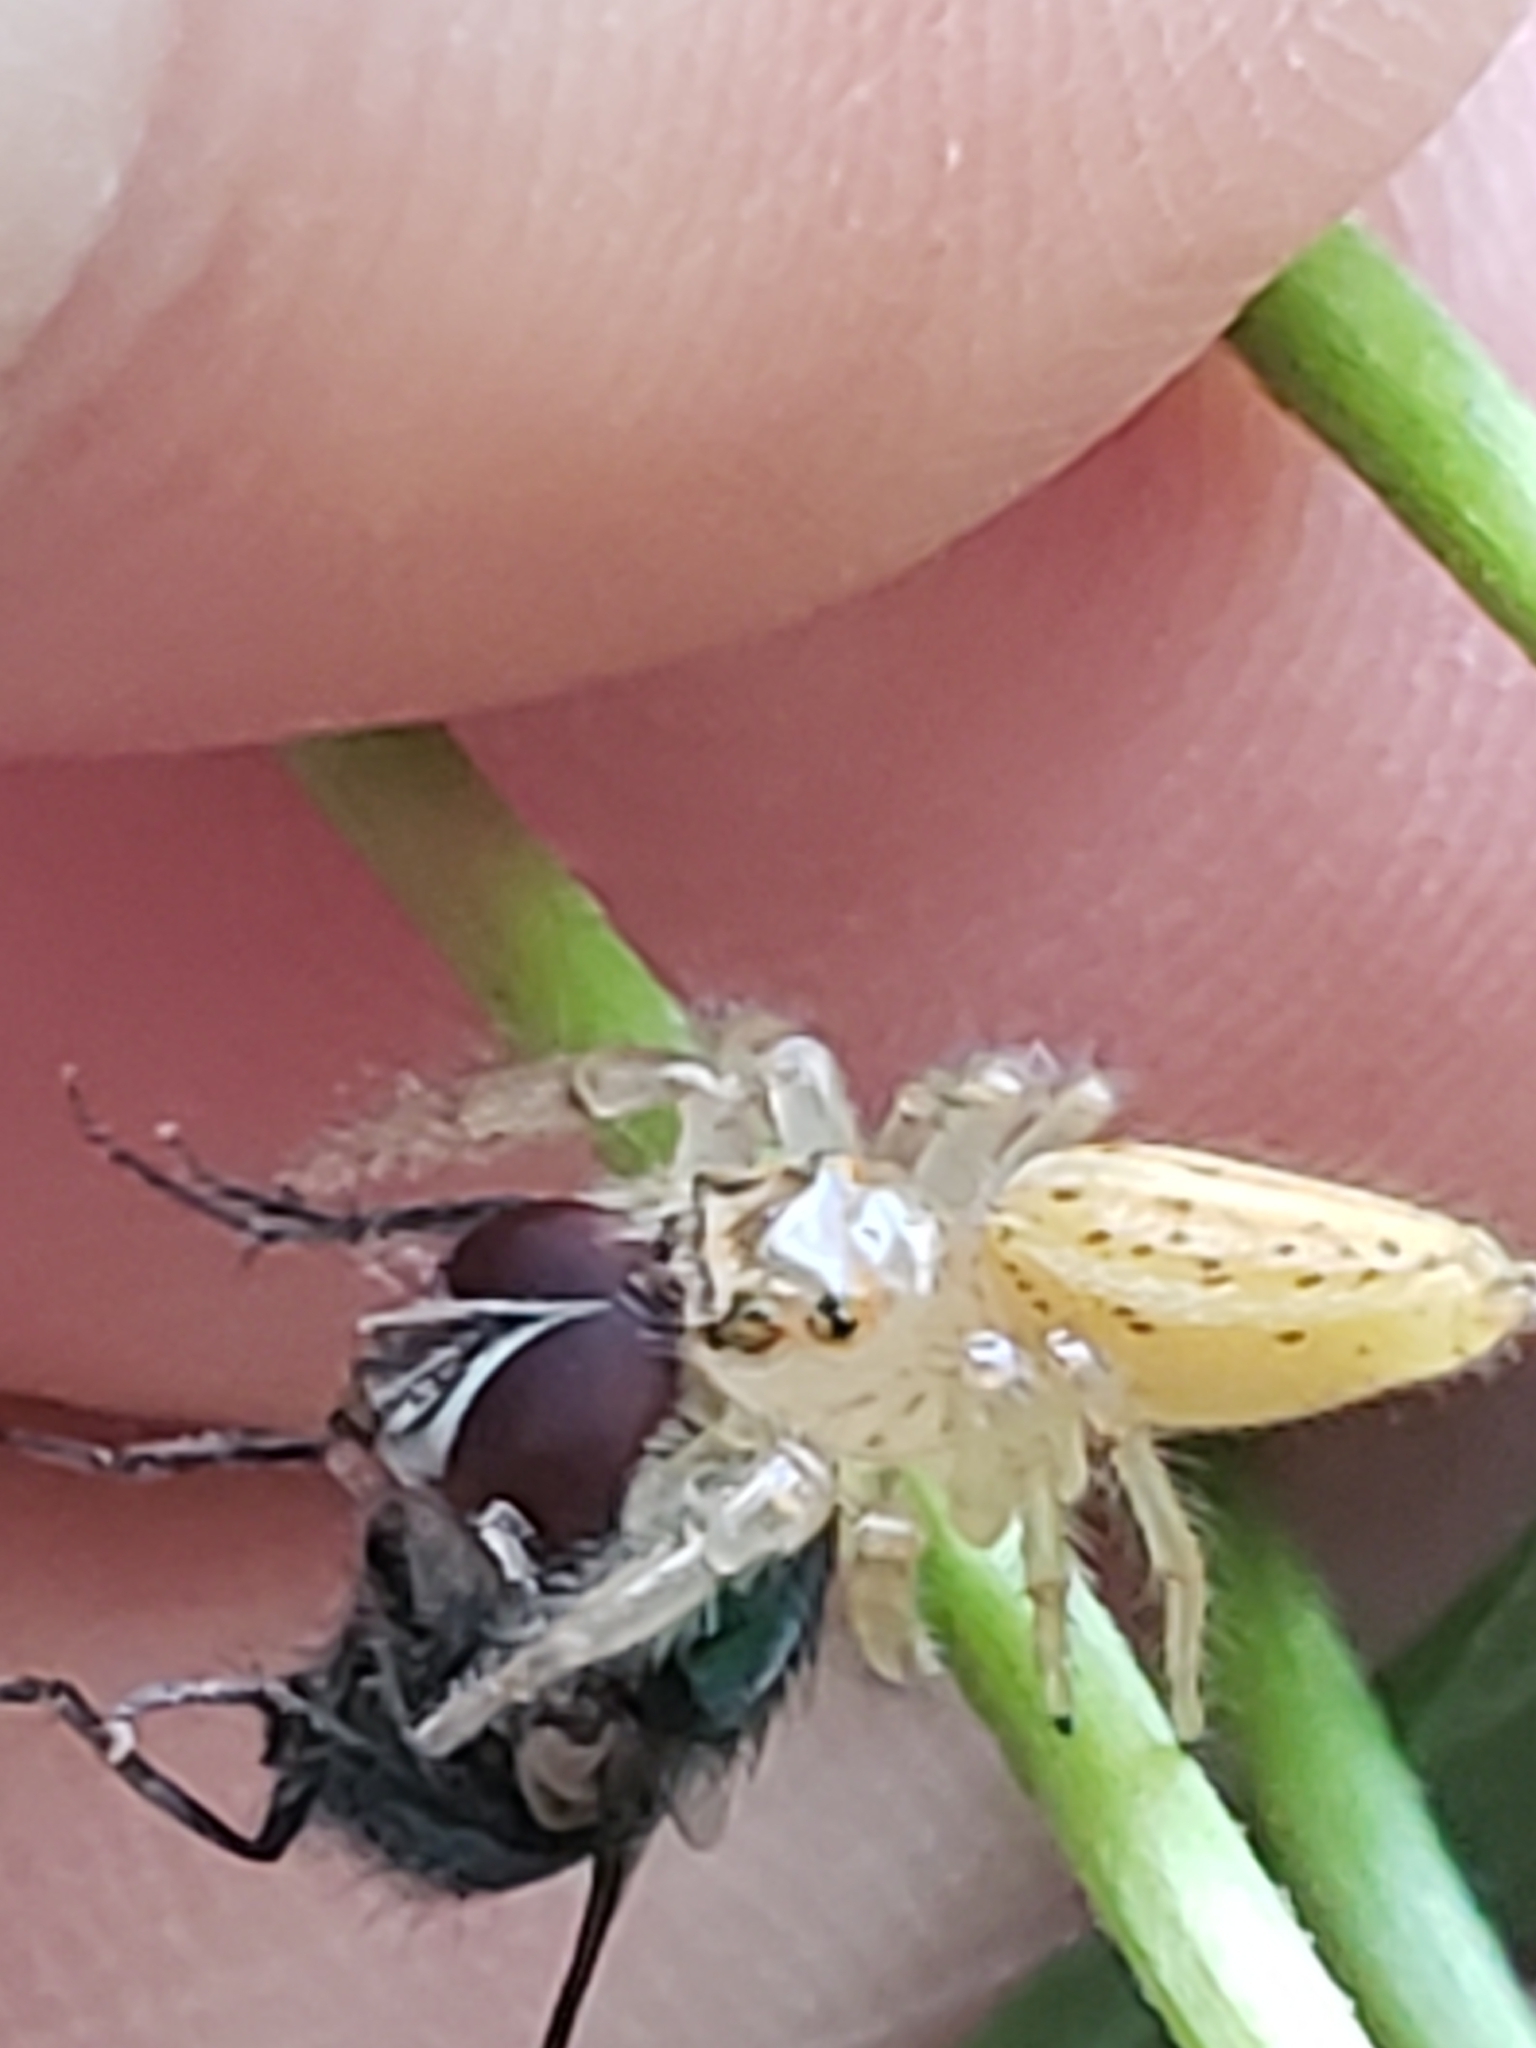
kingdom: Animalia
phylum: Arthropoda
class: Arachnida
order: Araneae
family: Salticidae
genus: Colonus
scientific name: Colonus sylvanus
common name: Jumping spiders
